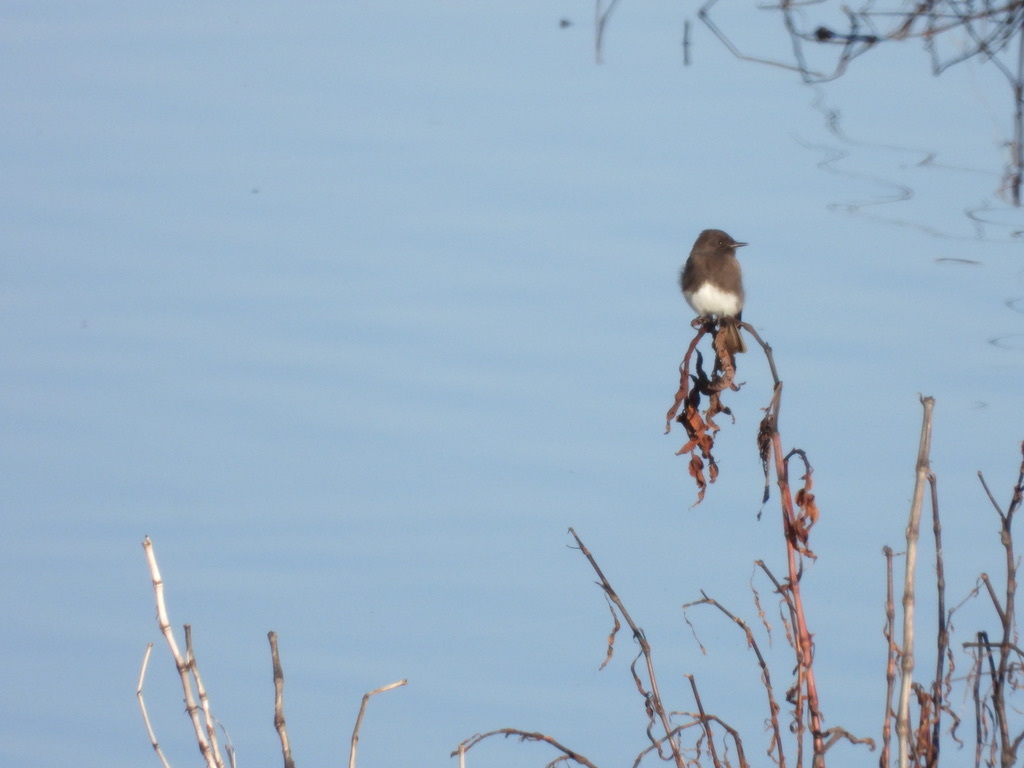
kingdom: Animalia
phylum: Chordata
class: Aves
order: Passeriformes
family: Tyrannidae
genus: Sayornis
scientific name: Sayornis nigricans
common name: Black phoebe
